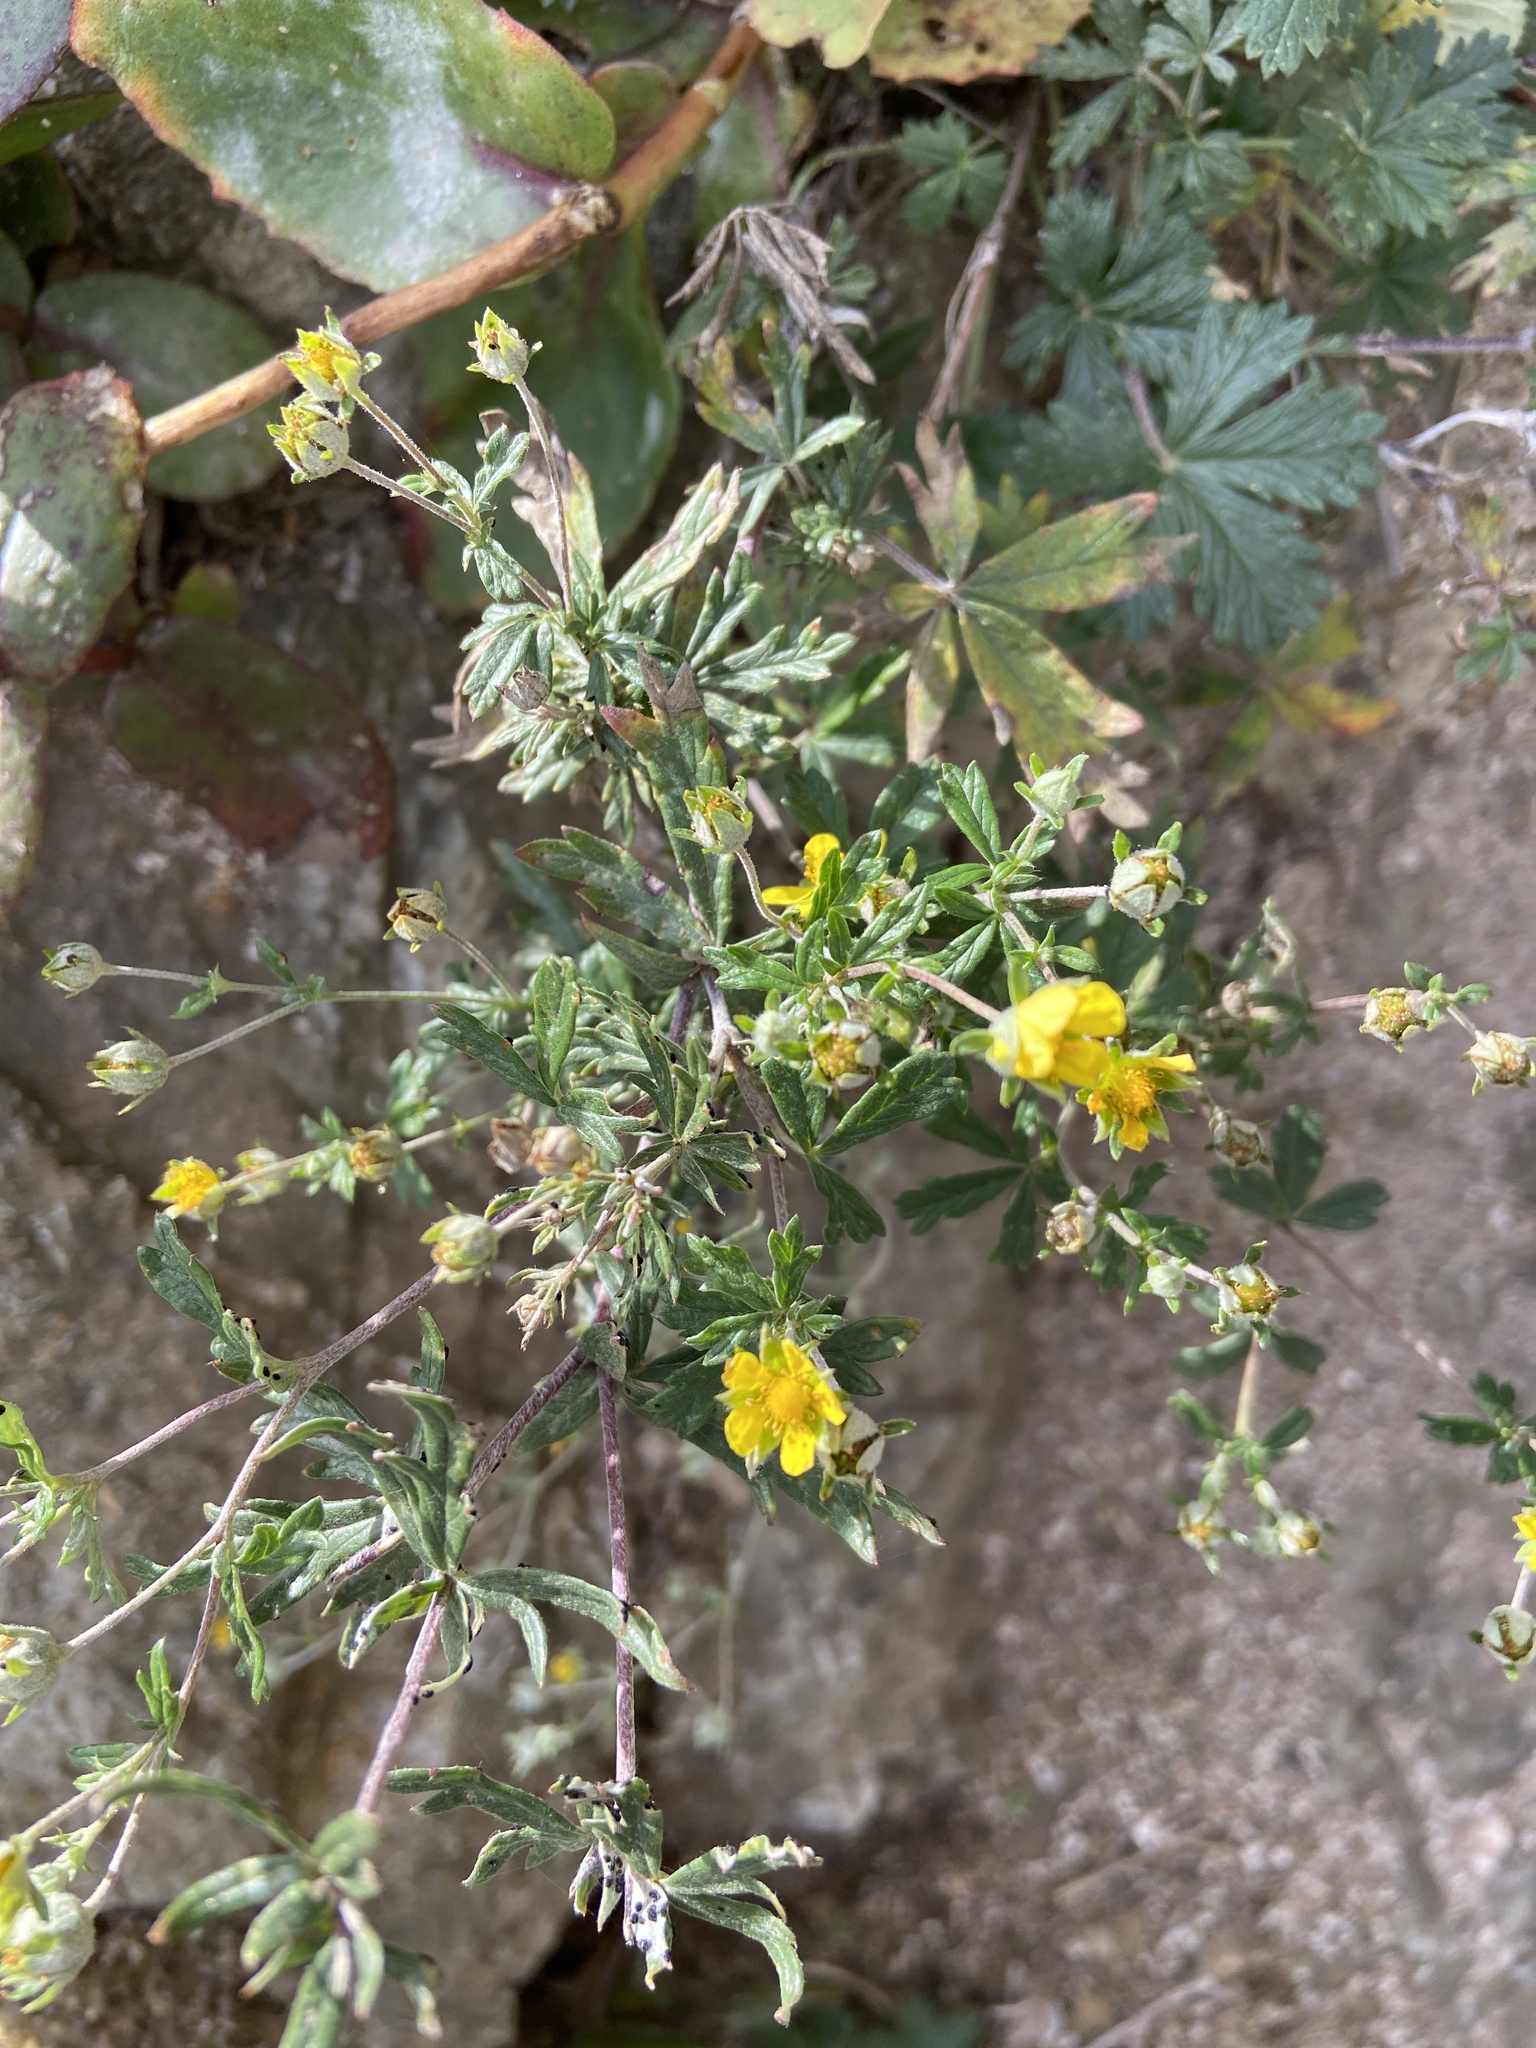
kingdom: Plantae
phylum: Tracheophyta
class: Magnoliopsida
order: Rosales
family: Rosaceae
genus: Potentilla
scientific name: Potentilla argentea
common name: Hoary cinquefoil
